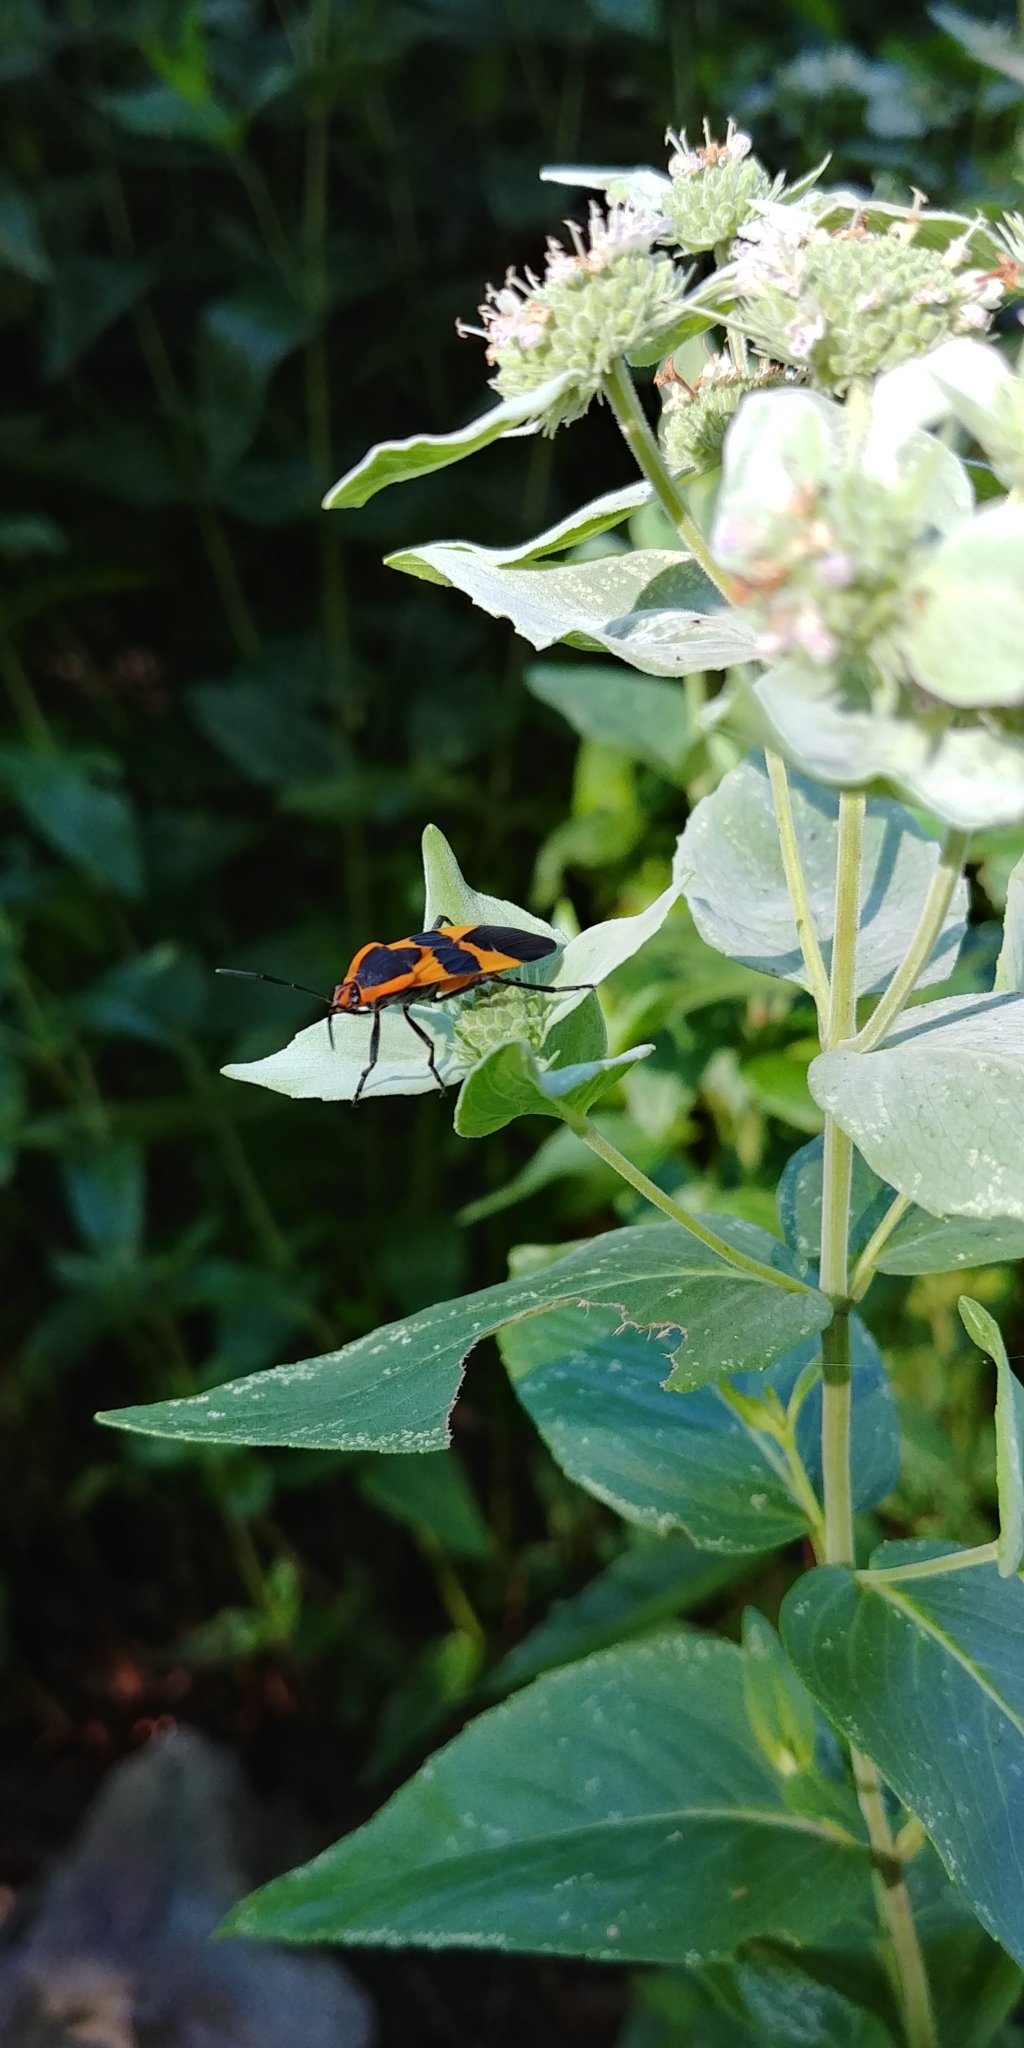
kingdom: Animalia
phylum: Arthropoda
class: Insecta
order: Hemiptera
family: Lygaeidae
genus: Oncopeltus
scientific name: Oncopeltus fasciatus
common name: Large milkweed bug
